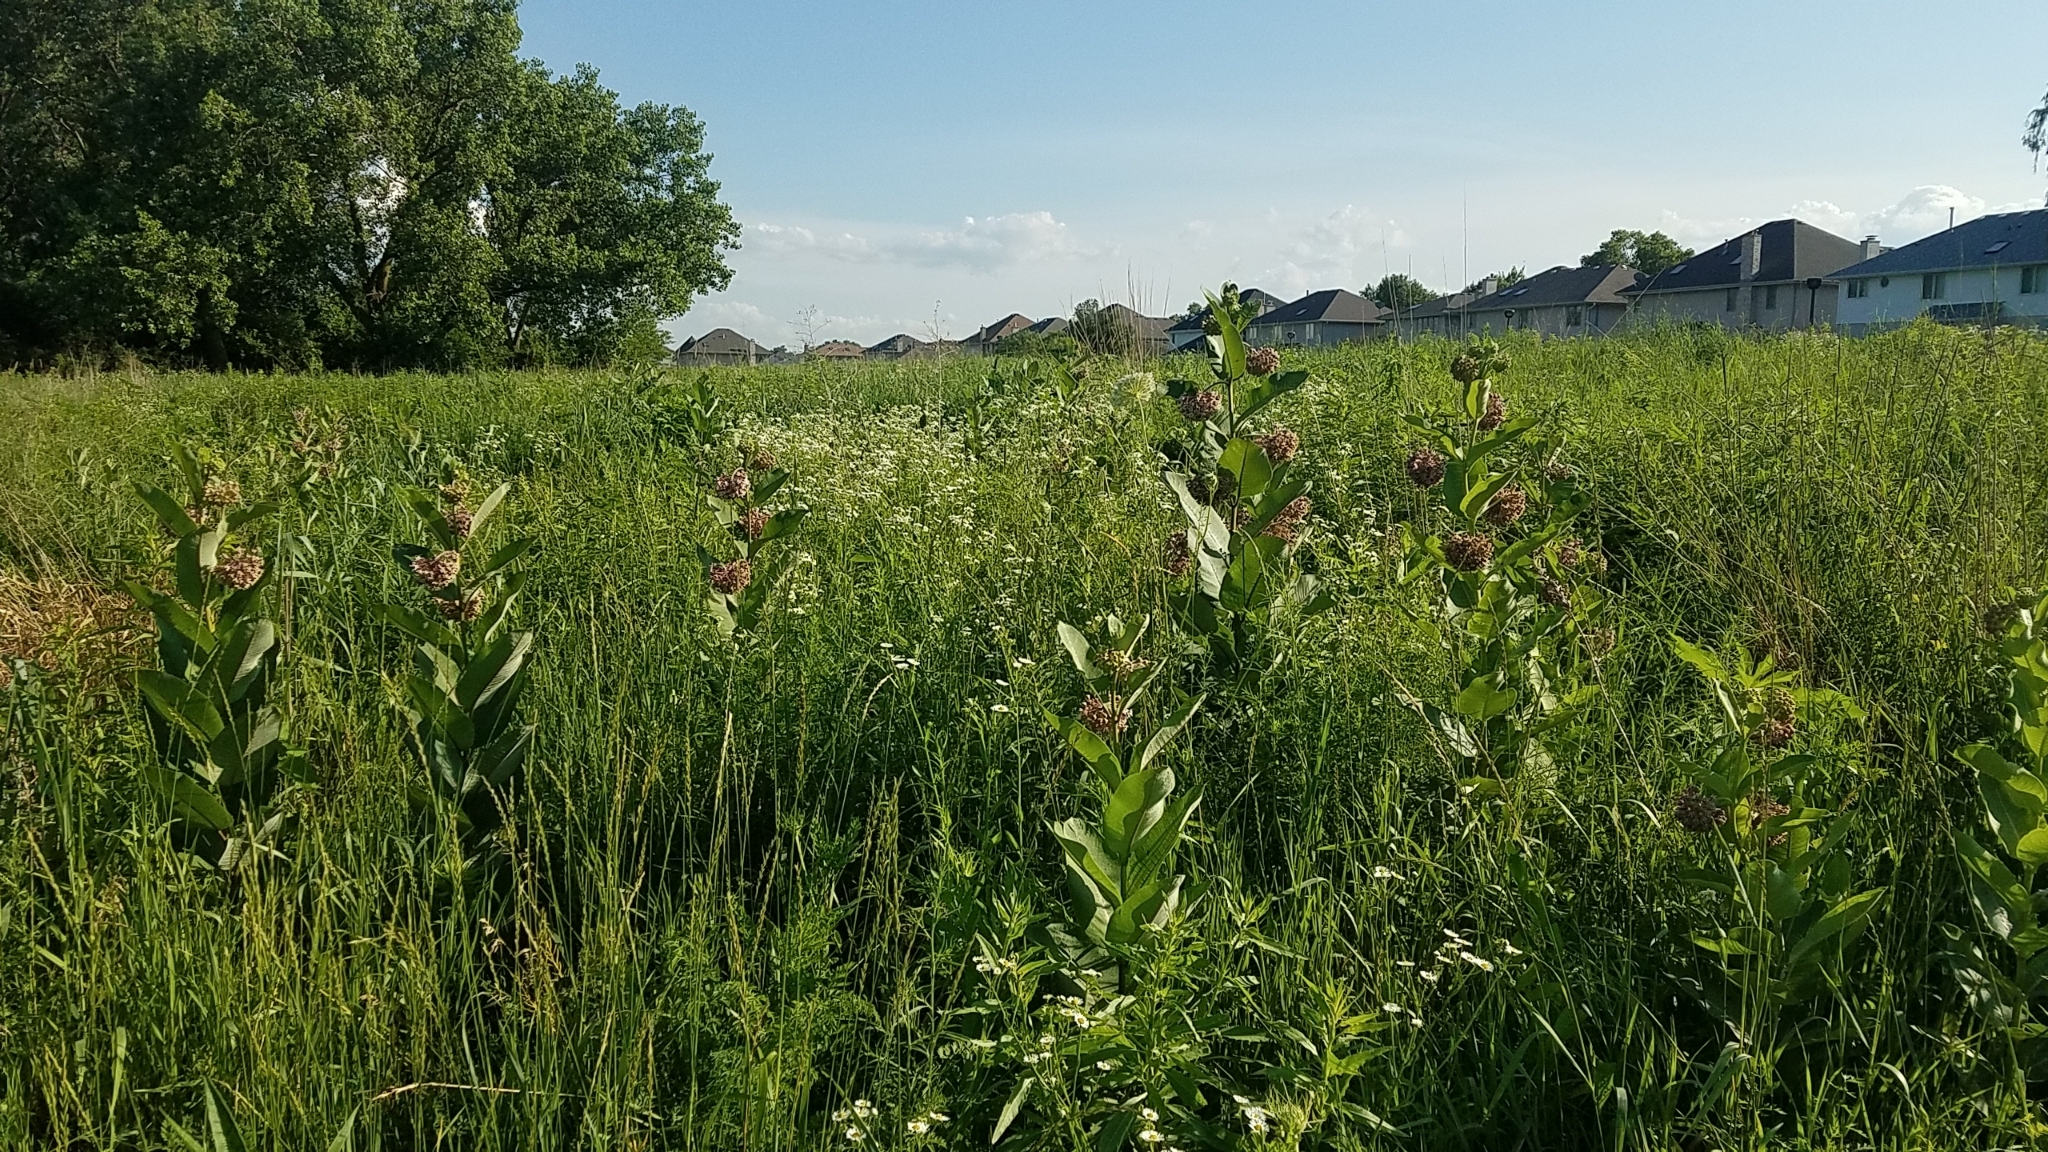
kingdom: Plantae
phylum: Tracheophyta
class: Magnoliopsida
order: Gentianales
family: Apocynaceae
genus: Asclepias
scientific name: Asclepias syriaca
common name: Common milkweed
